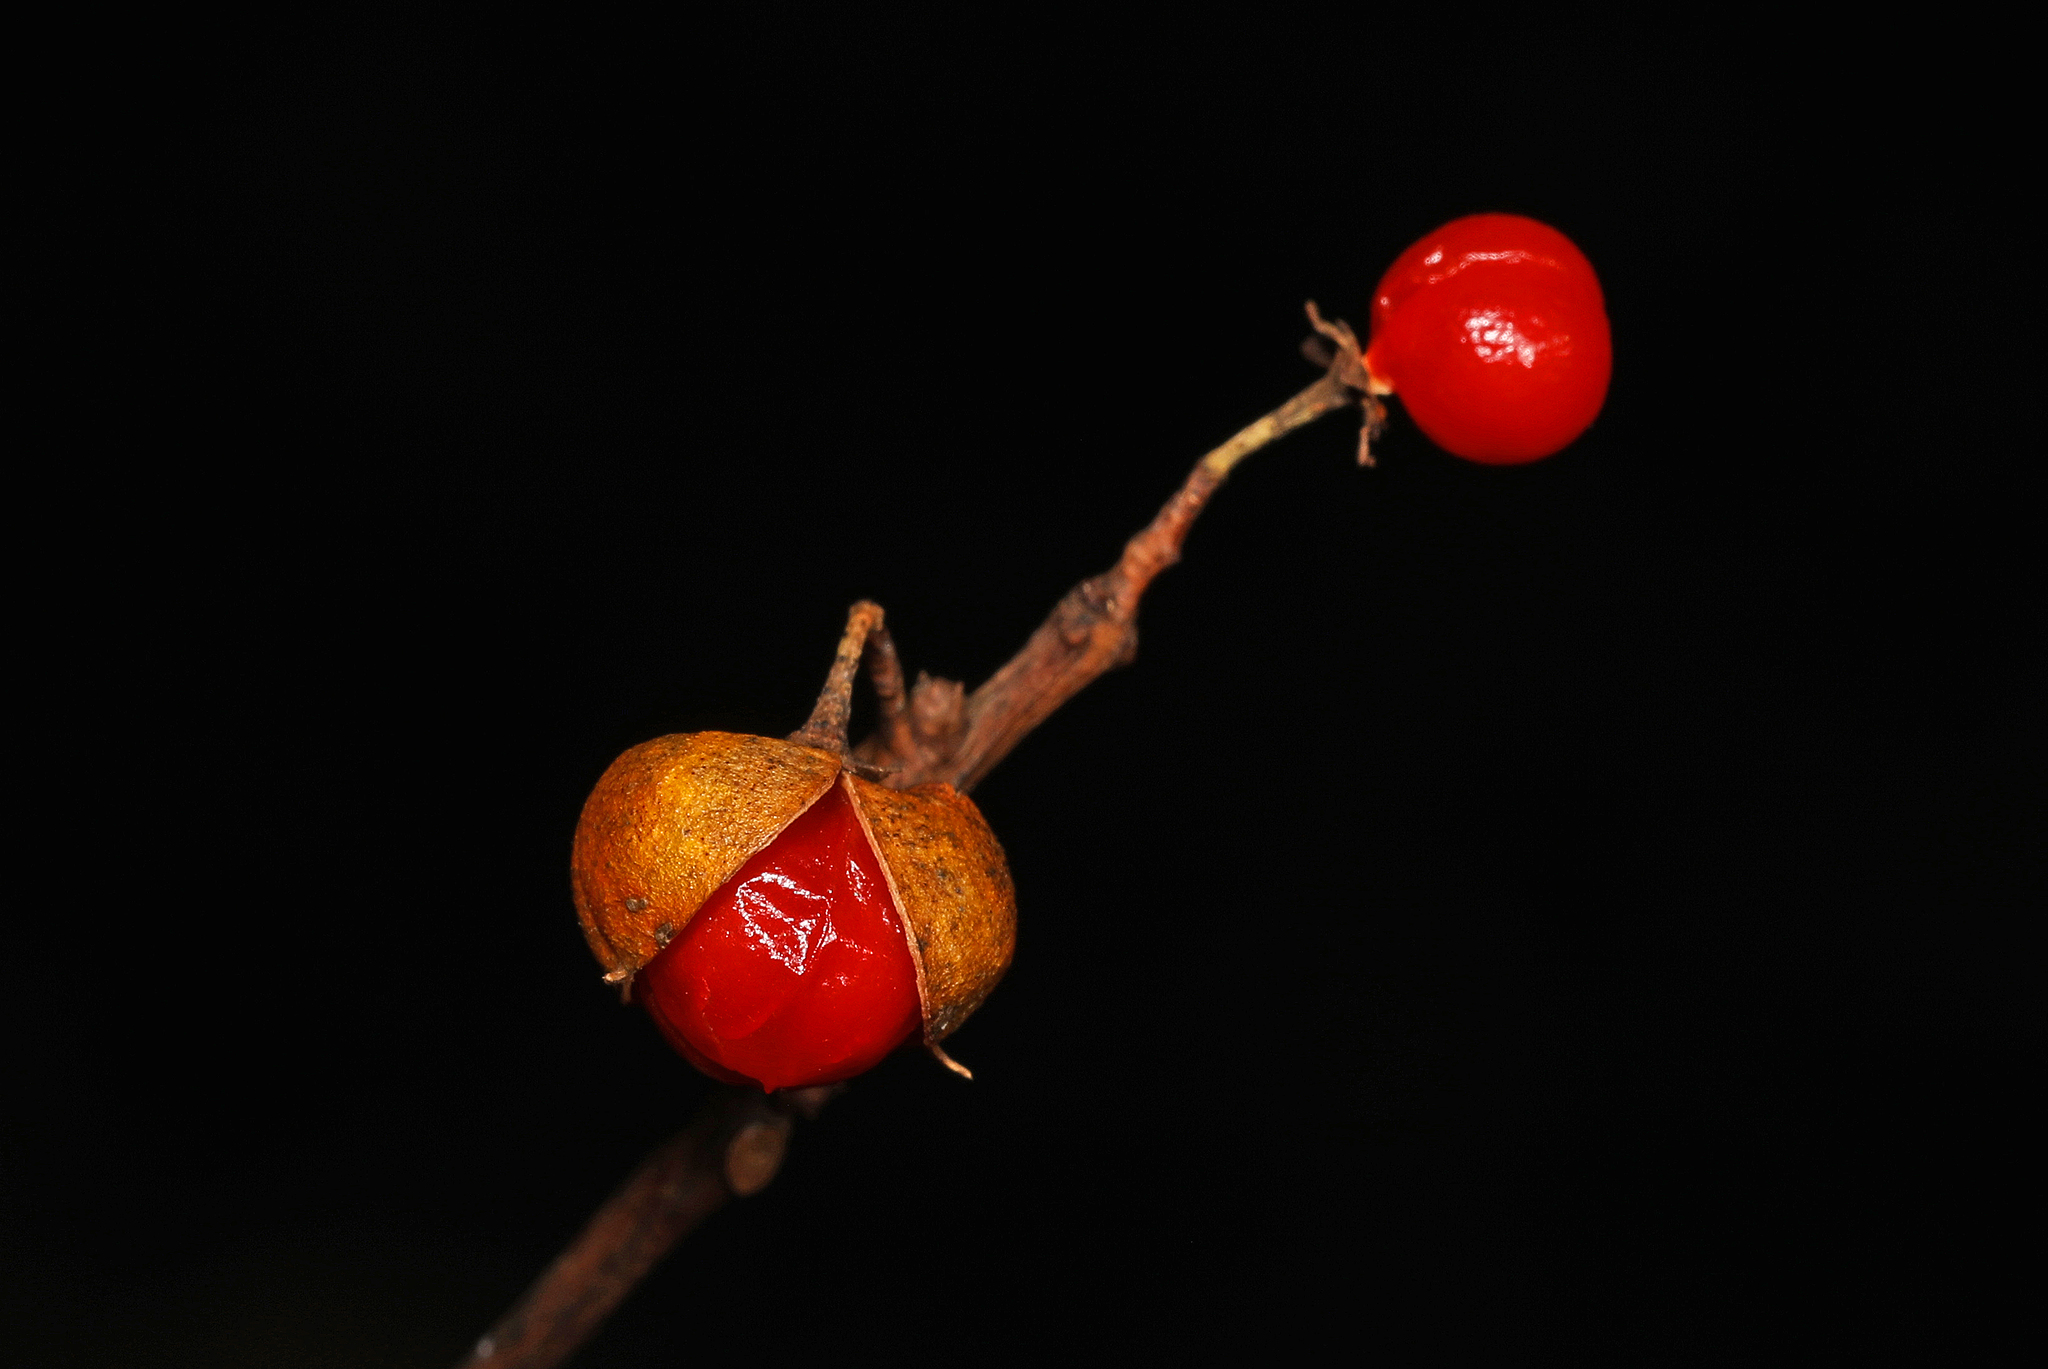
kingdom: Plantae
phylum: Tracheophyta
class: Magnoliopsida
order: Celastrales
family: Celastraceae
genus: Celastrus
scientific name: Celastrus orbiculatus
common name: Oriental bittersweet
